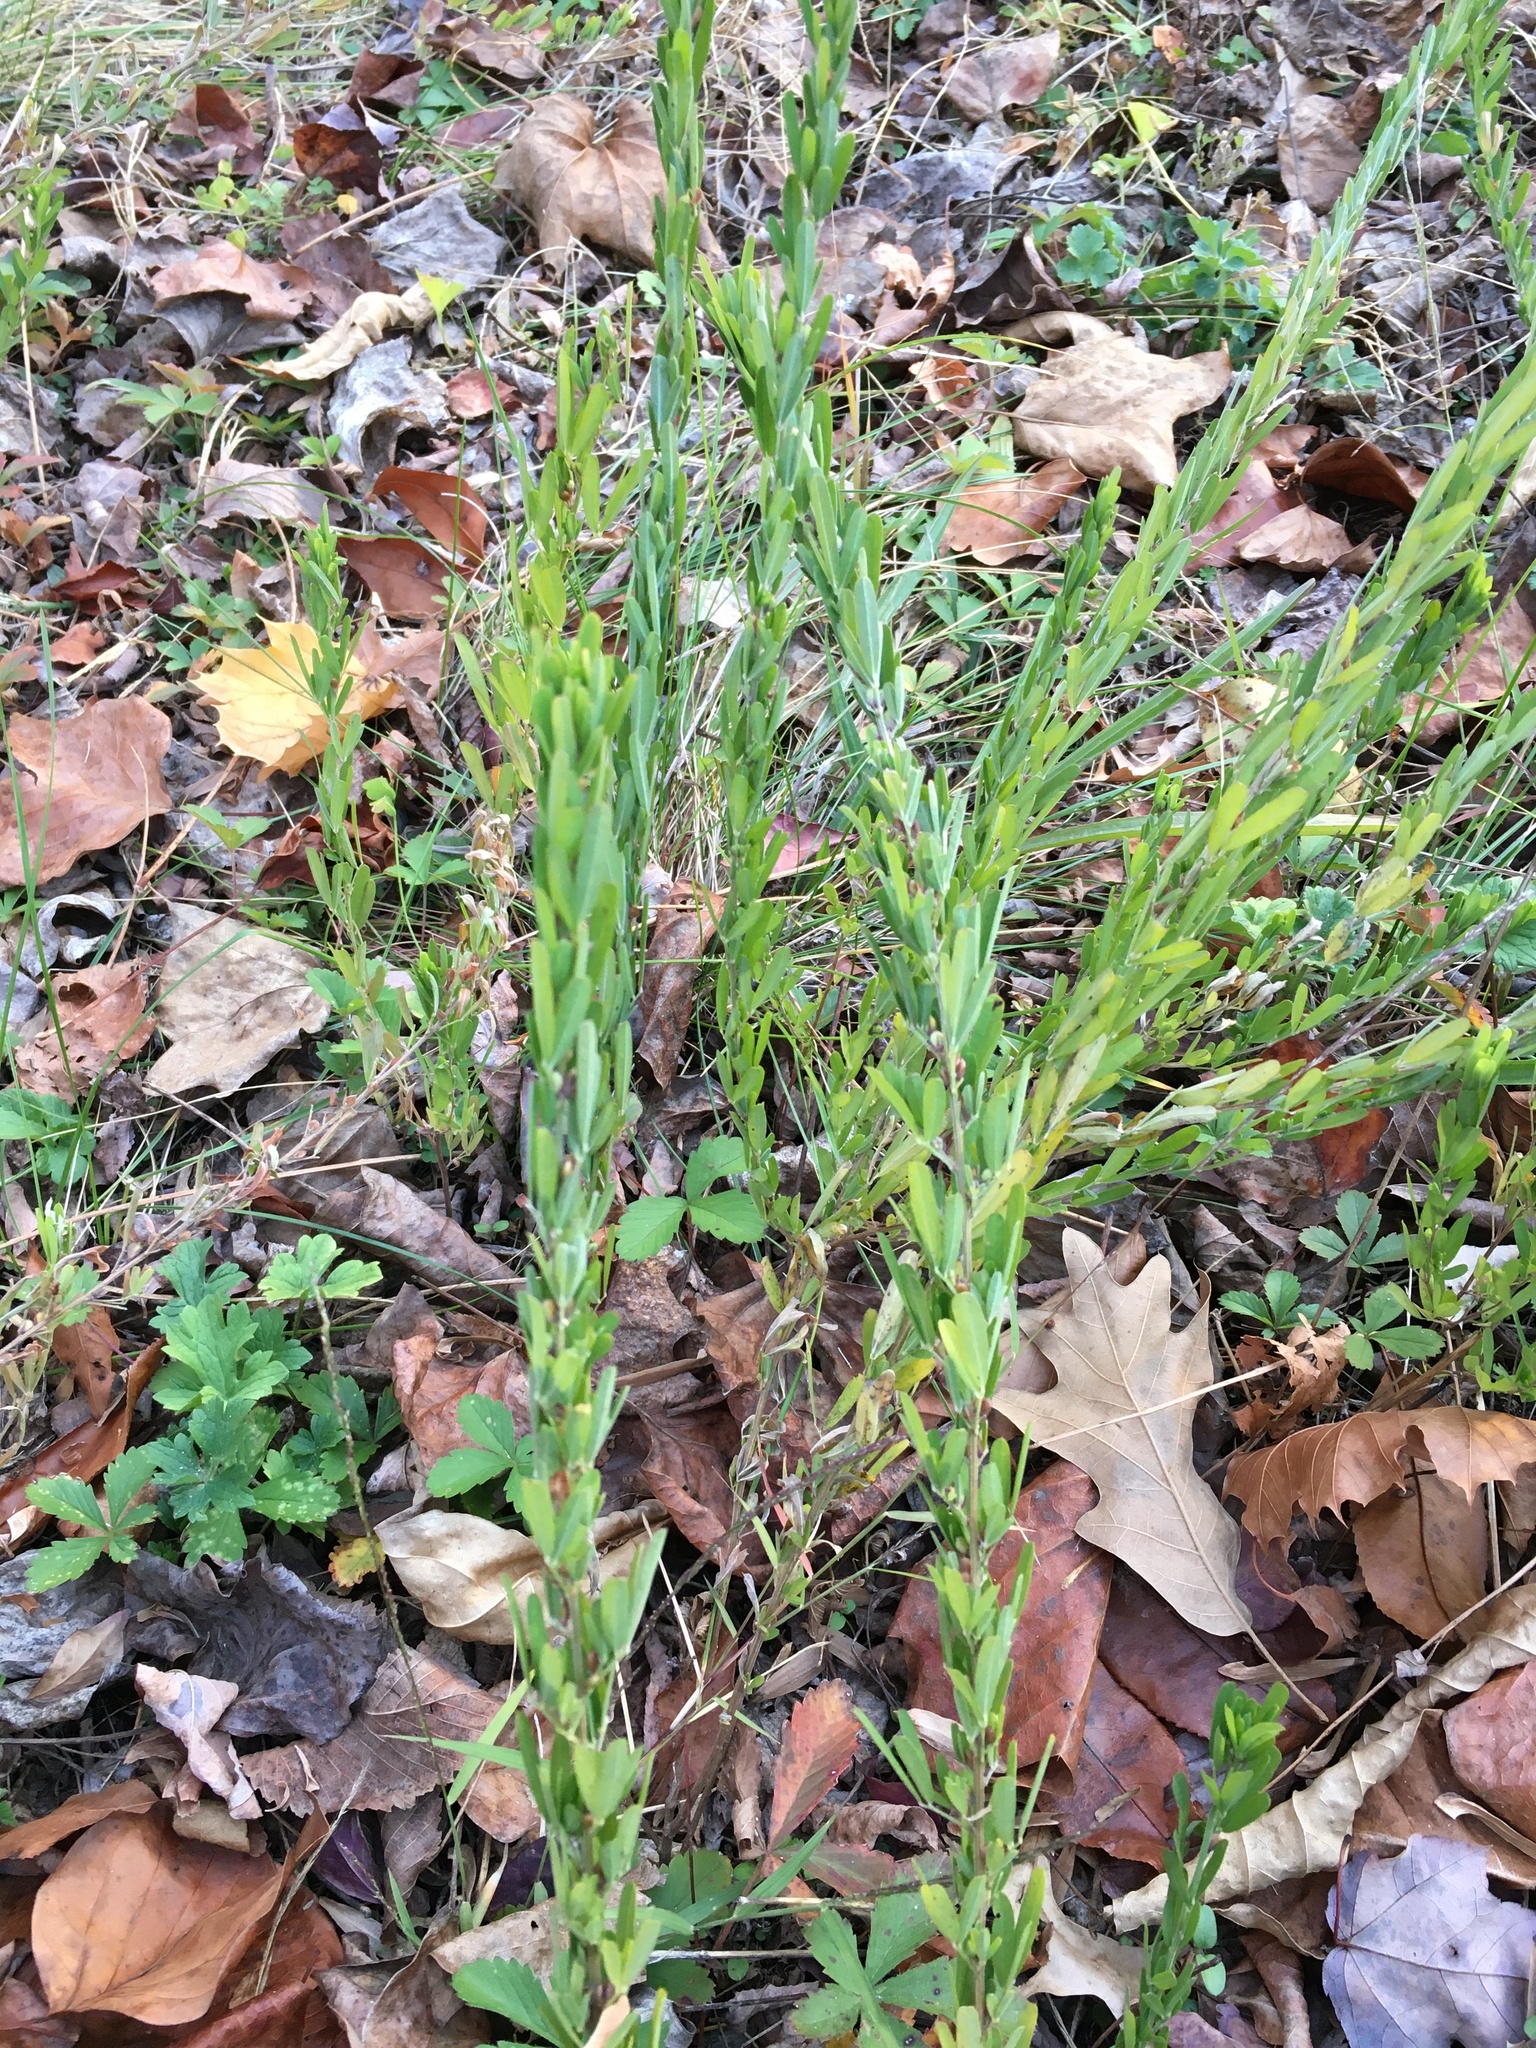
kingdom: Plantae
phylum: Tracheophyta
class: Magnoliopsida
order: Fabales
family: Fabaceae
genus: Lespedeza
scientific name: Lespedeza cuneata
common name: Chinese bush-clover
